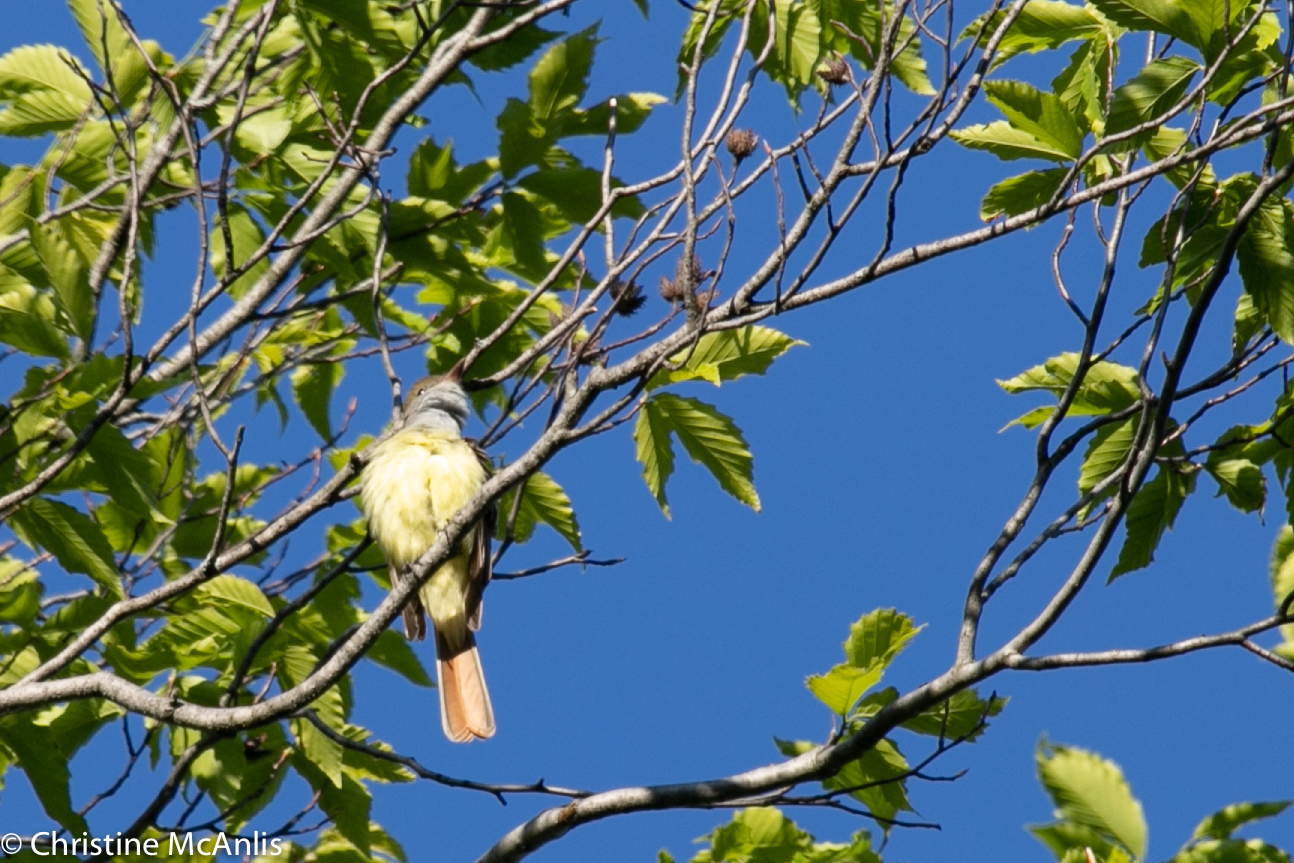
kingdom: Animalia
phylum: Chordata
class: Aves
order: Passeriformes
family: Tyrannidae
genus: Myiarchus
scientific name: Myiarchus crinitus
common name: Great crested flycatcher
